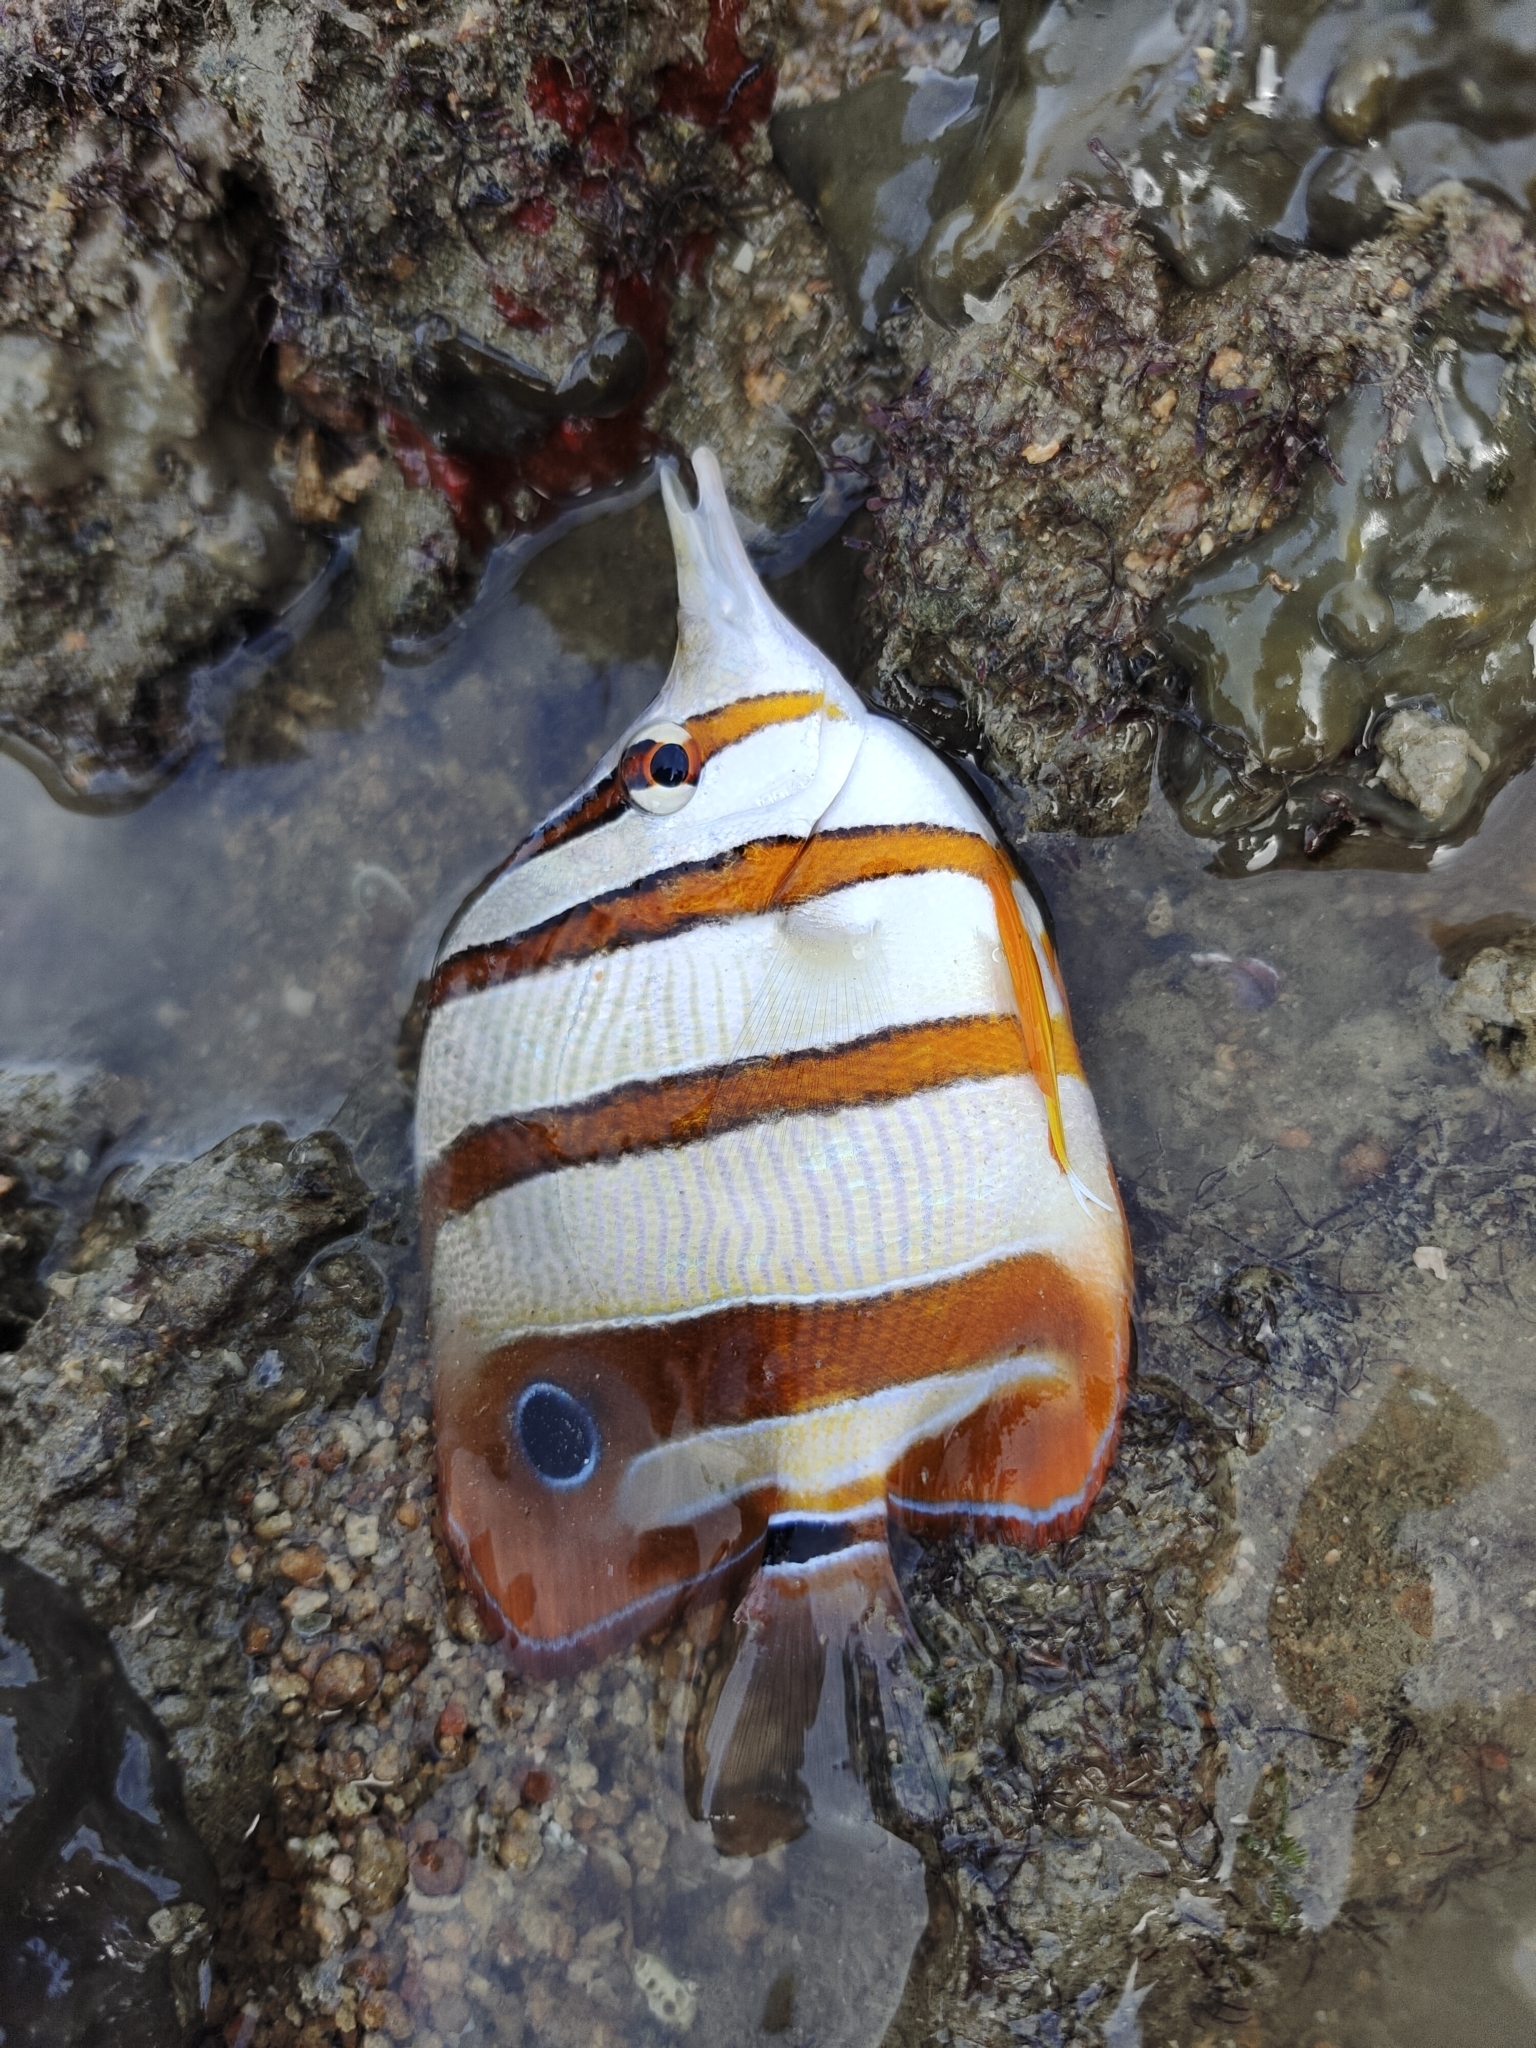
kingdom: Animalia
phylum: Chordata
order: Perciformes
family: Chaetodontidae
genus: Chelmon
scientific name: Chelmon rostratus
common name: Beaked butterflyfish
